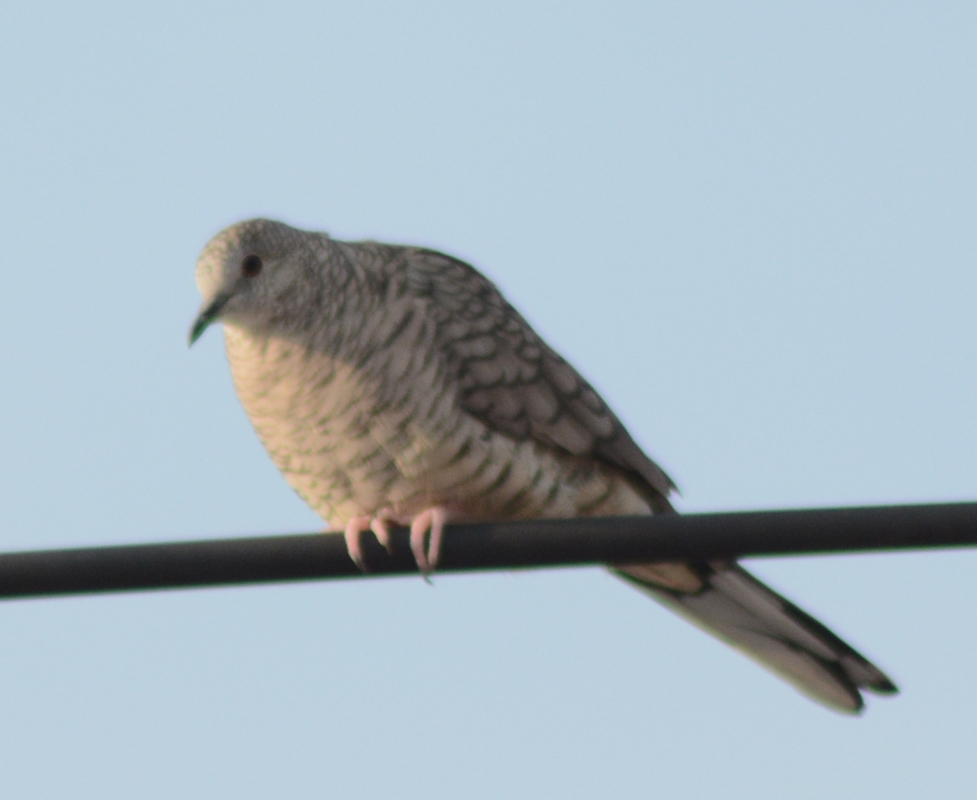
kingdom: Animalia
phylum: Chordata
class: Aves
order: Columbiformes
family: Columbidae
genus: Columbina
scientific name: Columbina inca
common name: Inca dove
